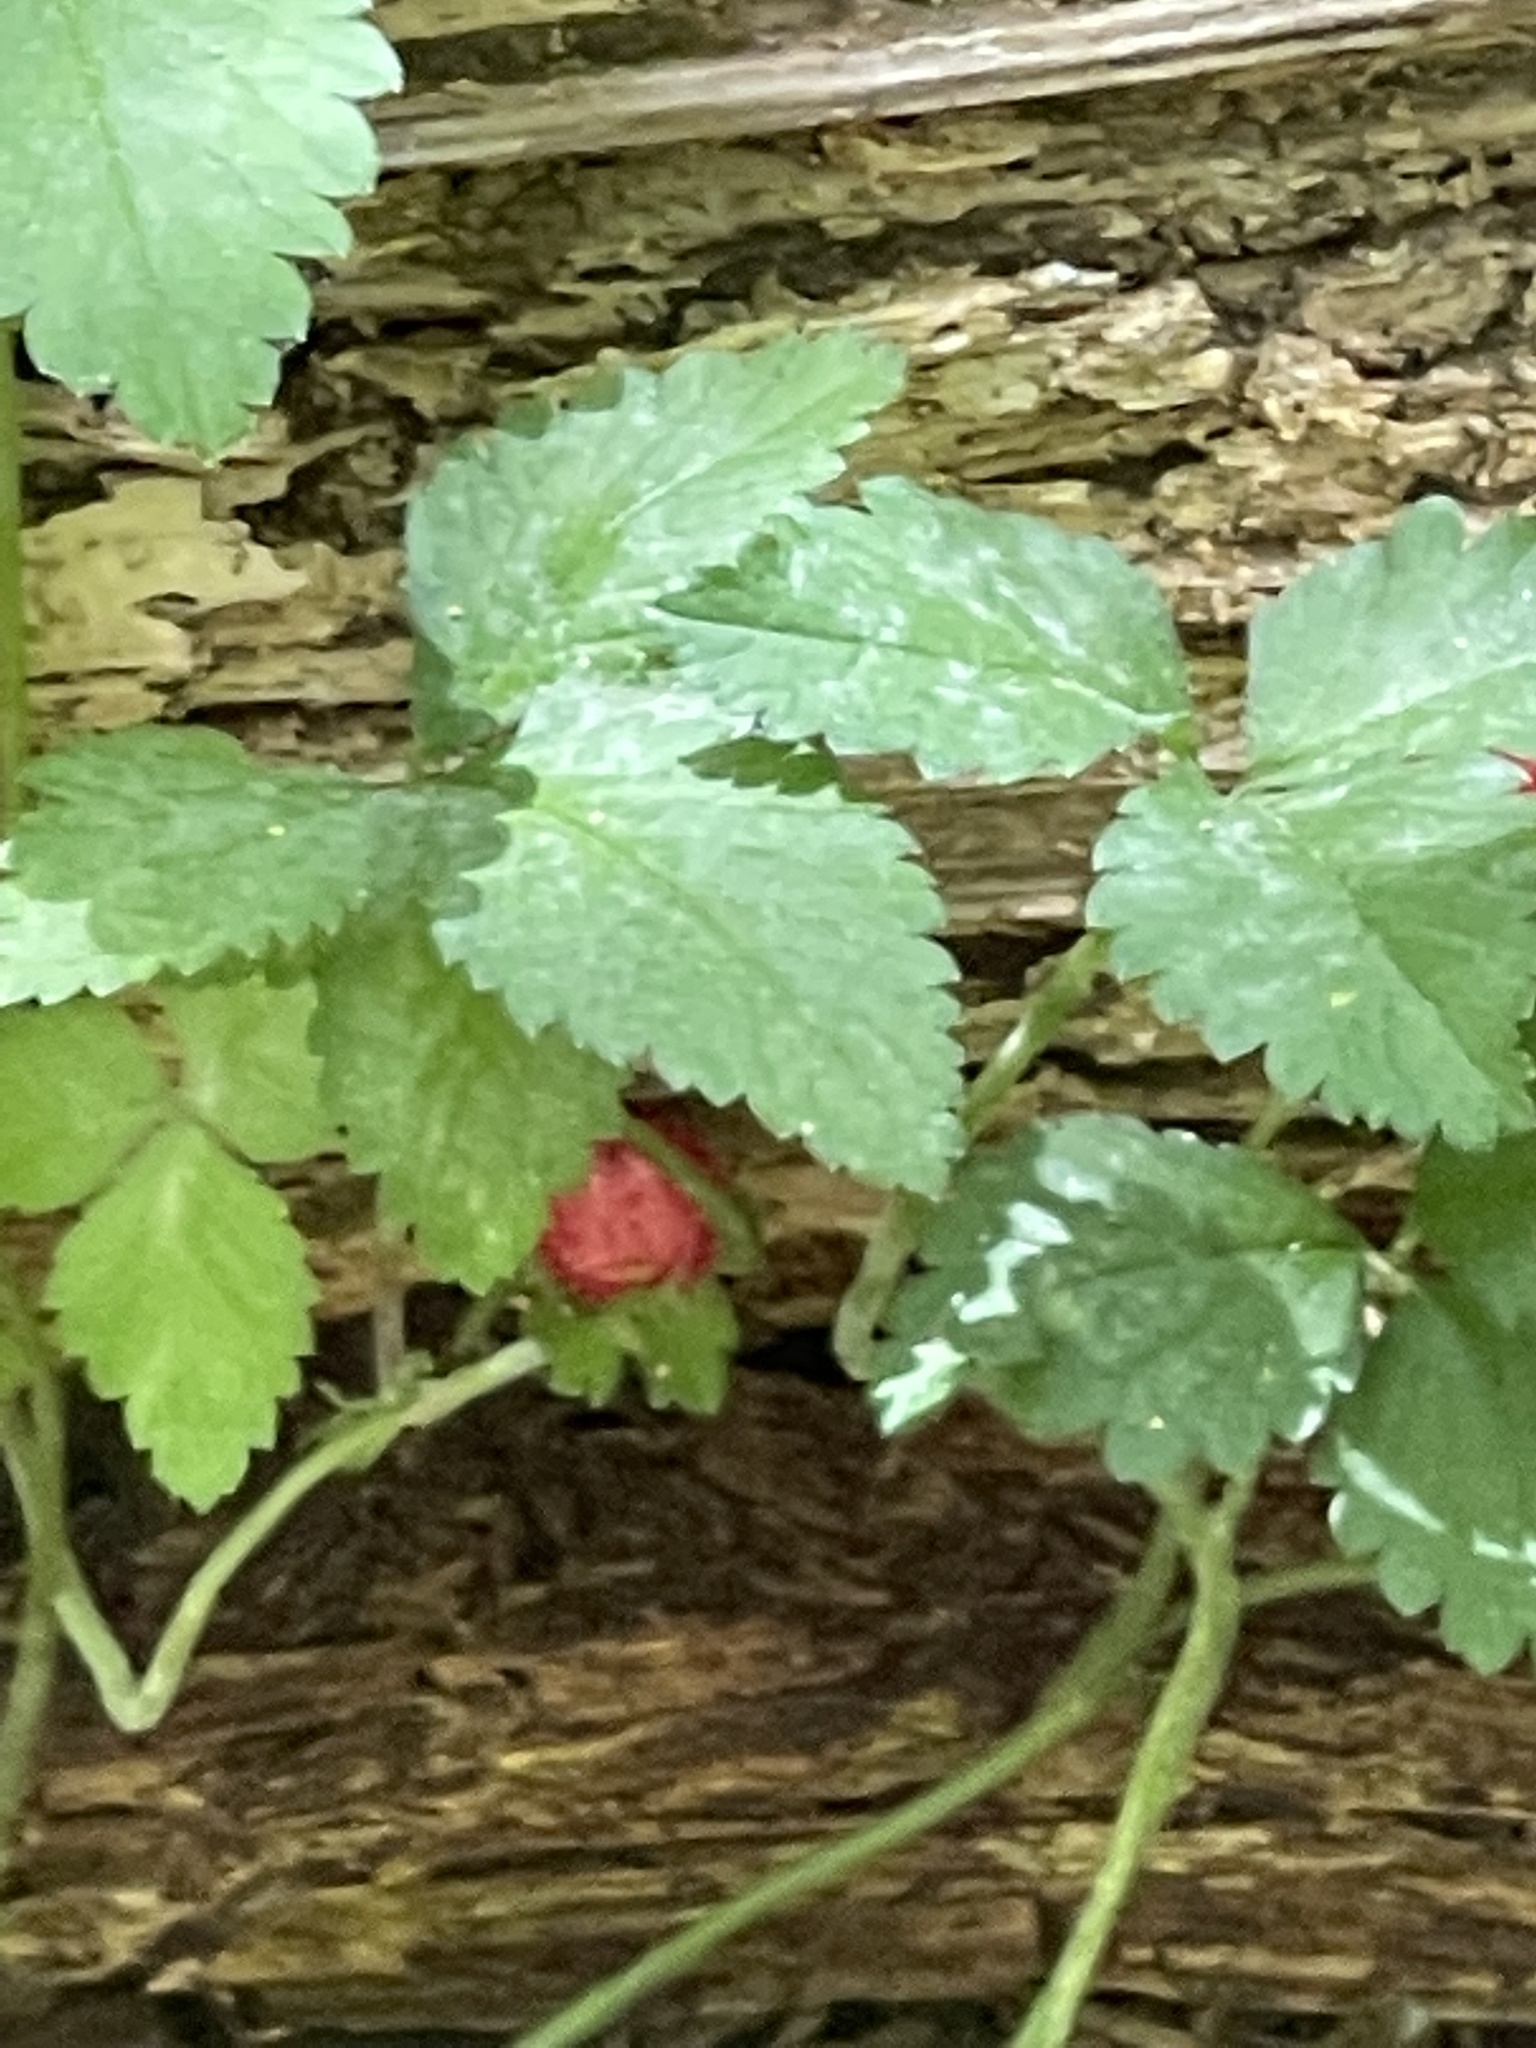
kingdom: Plantae
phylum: Tracheophyta
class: Magnoliopsida
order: Rosales
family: Rosaceae
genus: Potentilla
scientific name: Potentilla indica
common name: Yellow-flowered strawberry
